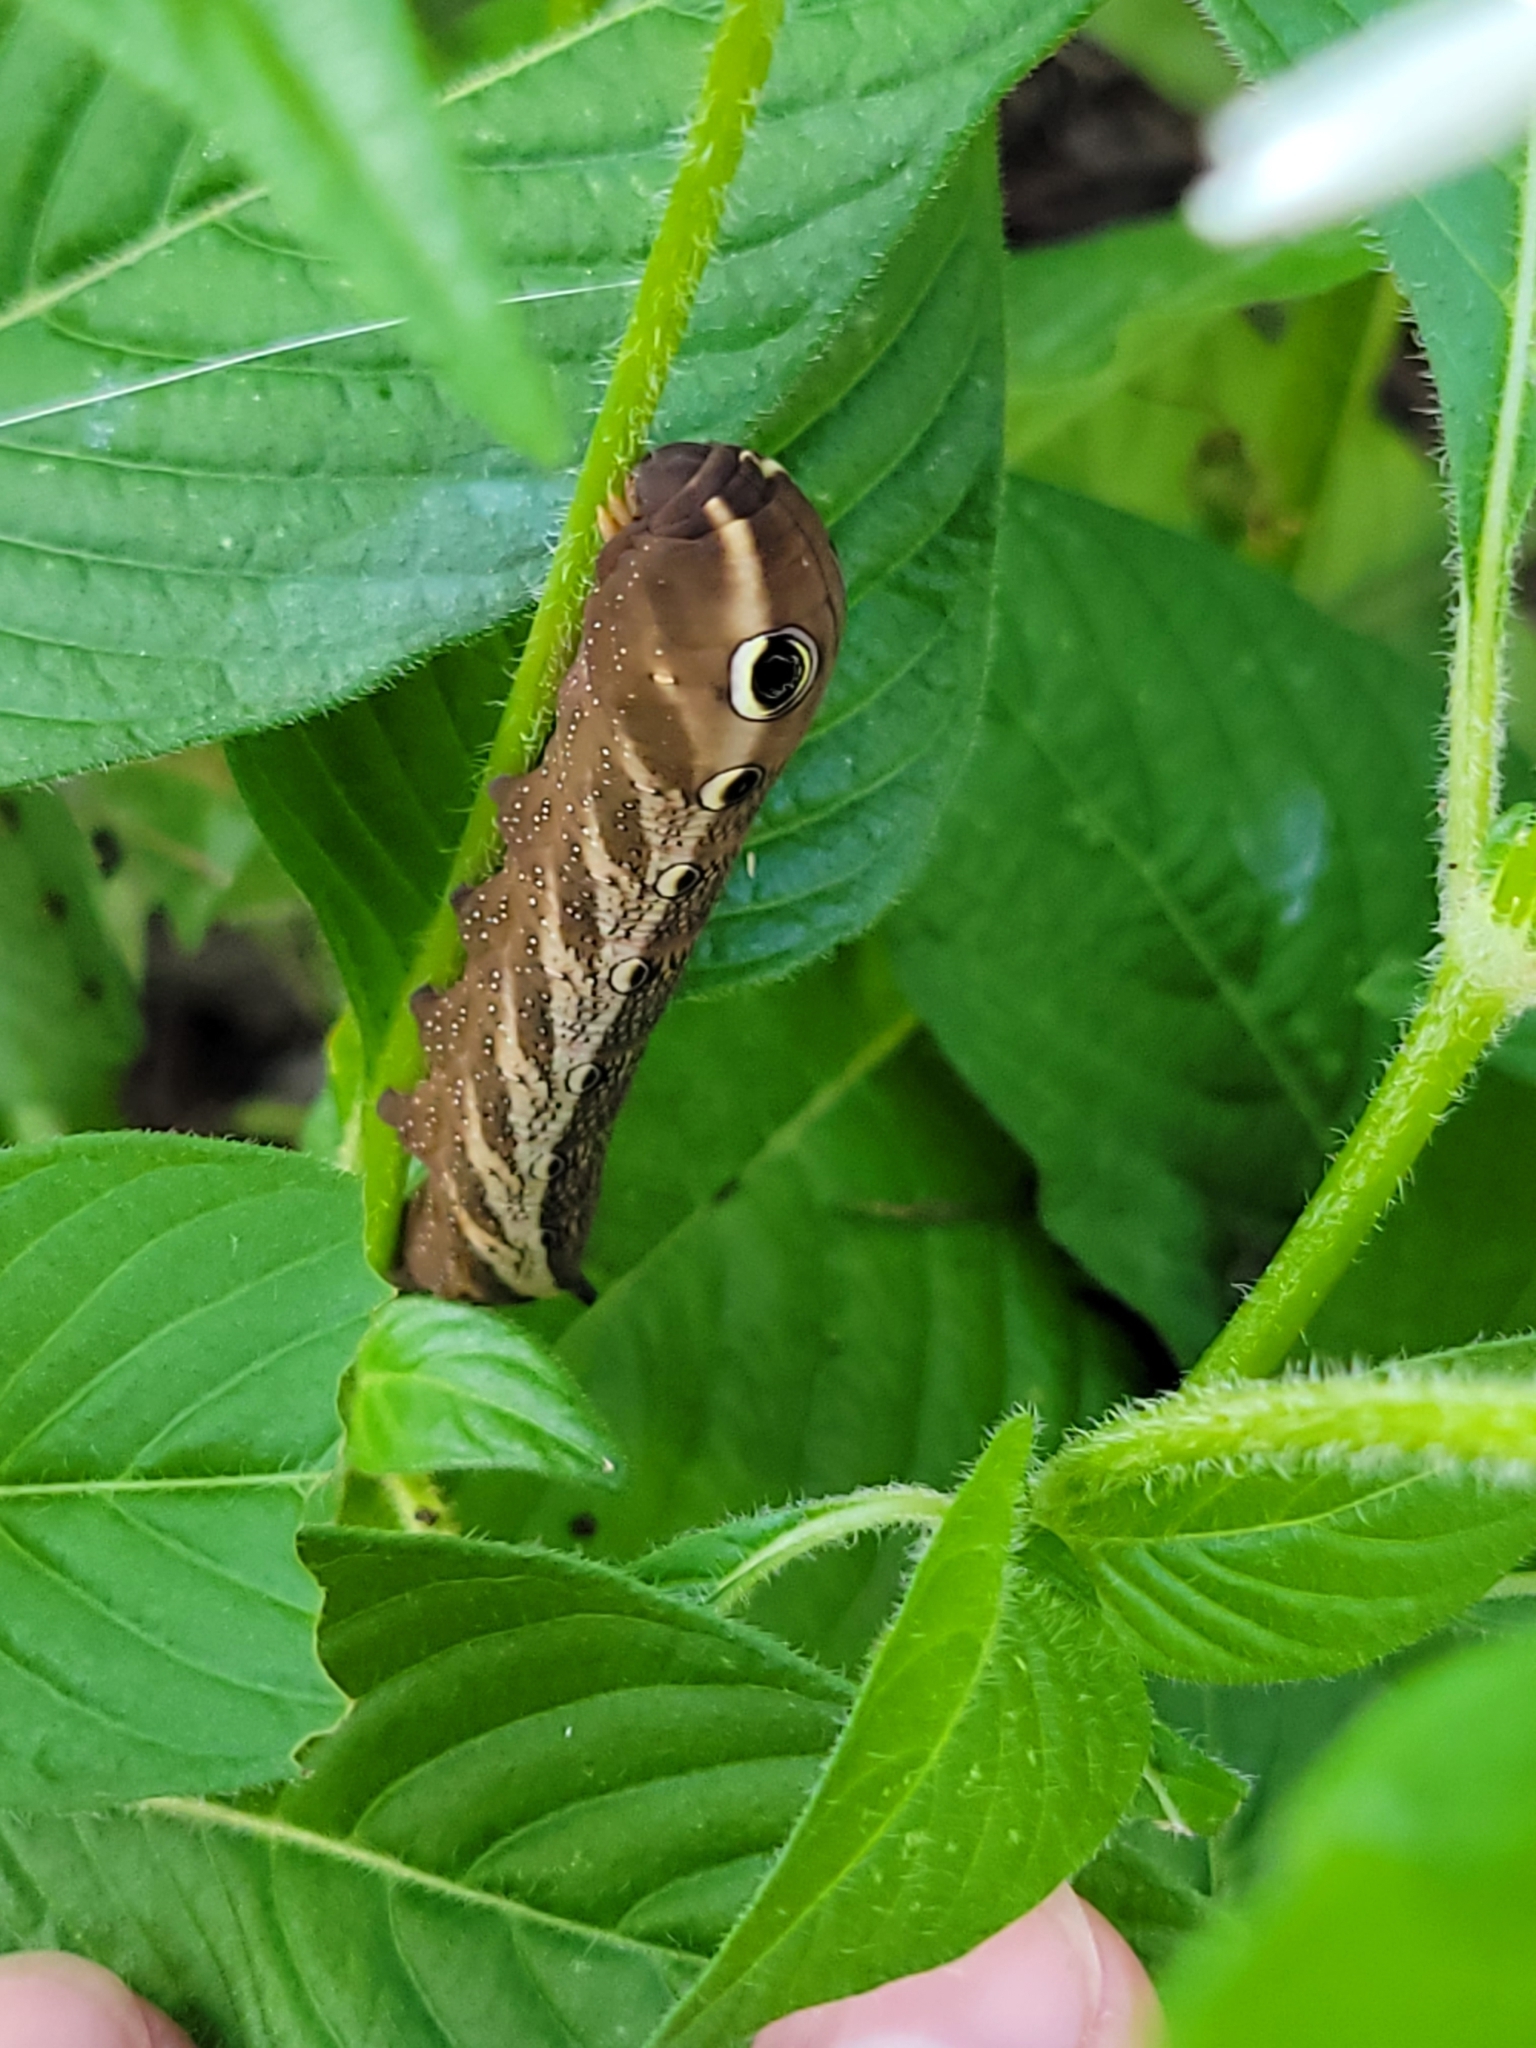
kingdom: Animalia
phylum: Arthropoda
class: Insecta
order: Lepidoptera
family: Sphingidae
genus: Xylophanes
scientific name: Xylophanes tersa
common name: Tersa sphinx
